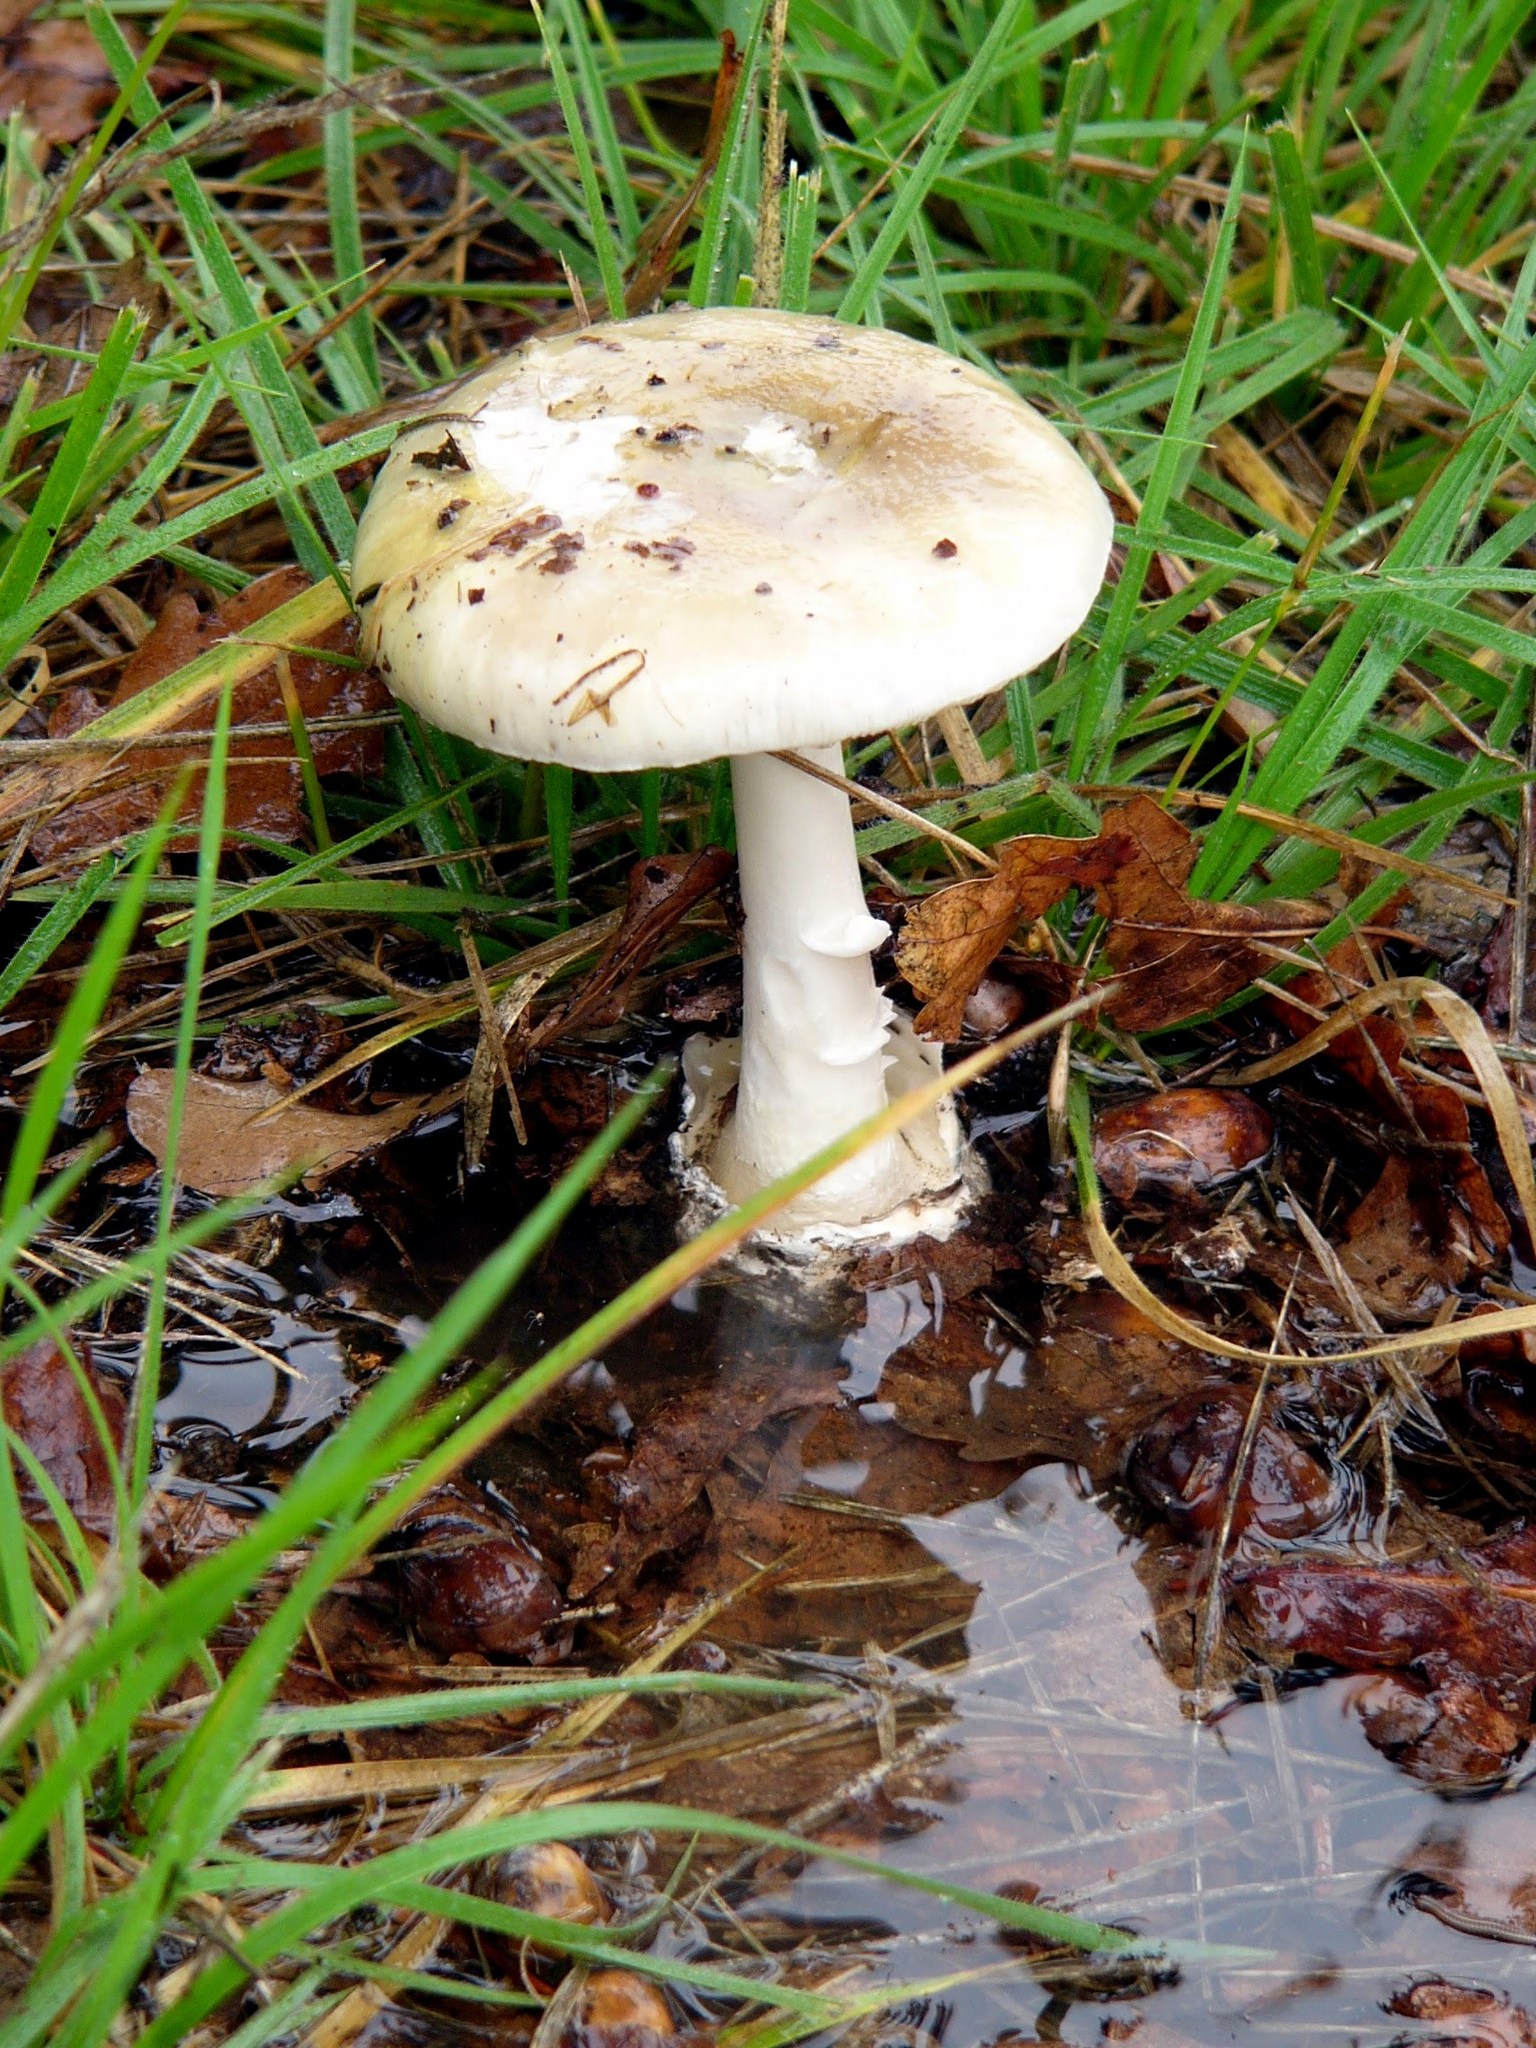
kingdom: Fungi
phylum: Basidiomycota
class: Agaricomycetes
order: Agaricales
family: Amanitaceae
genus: Amanita
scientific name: Amanita phalloides
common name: Death cap
